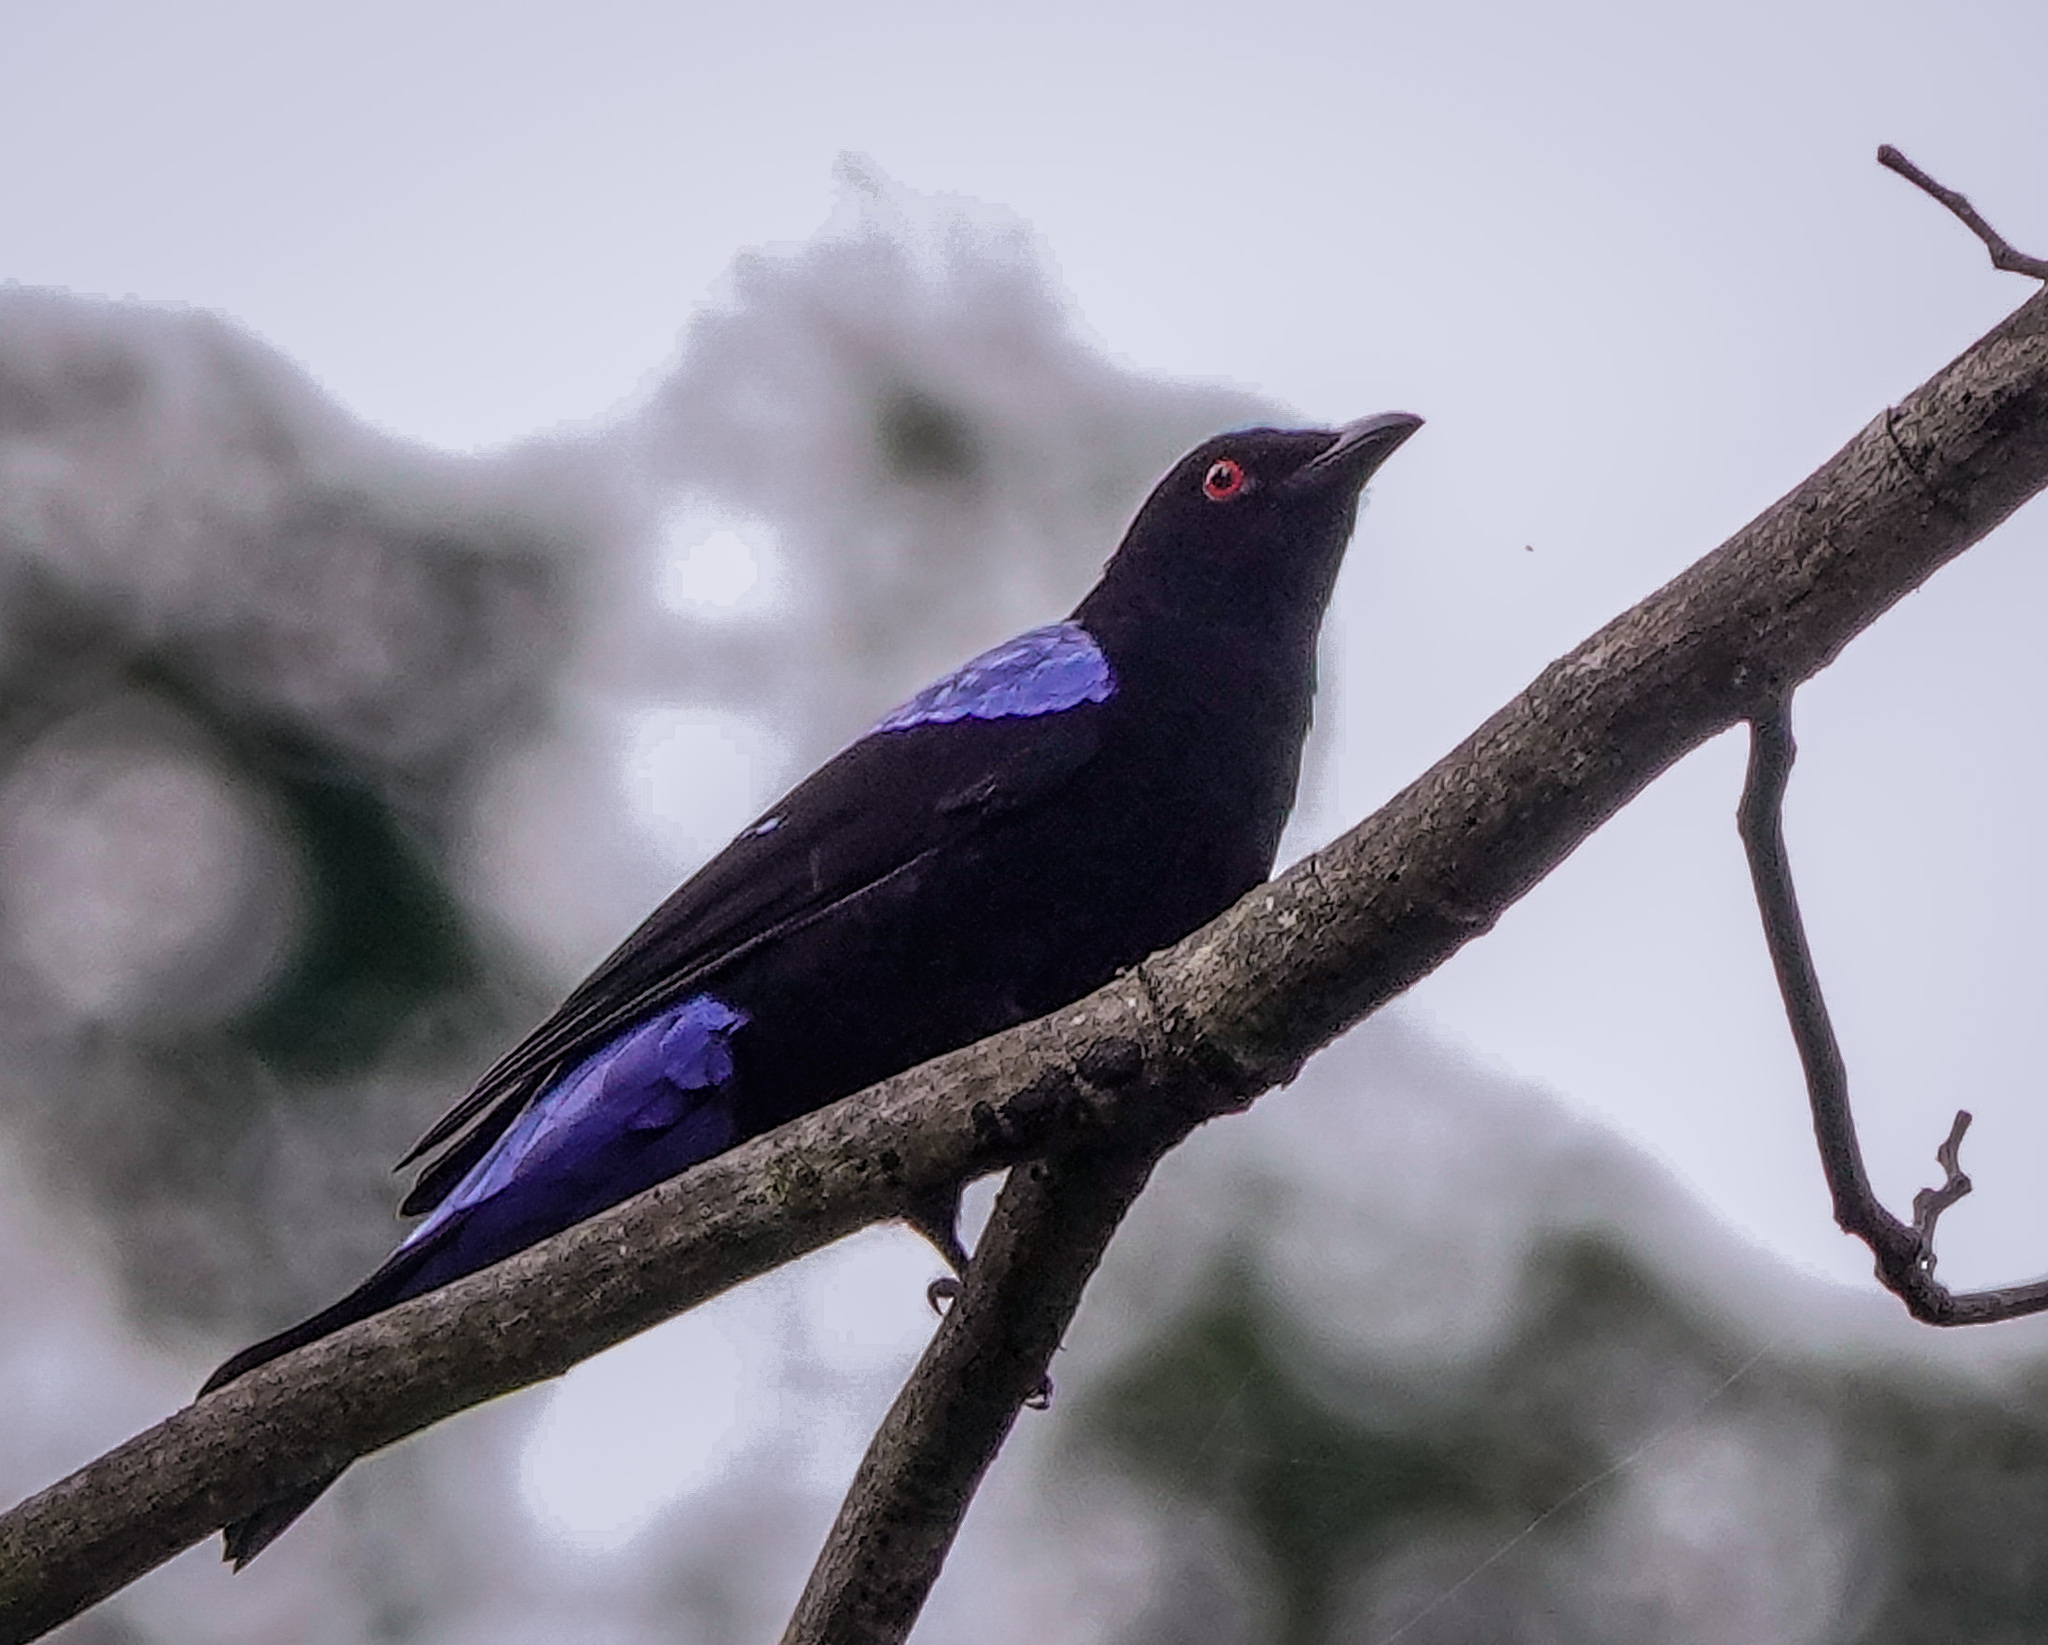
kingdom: Animalia
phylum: Chordata
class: Aves
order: Passeriformes
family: Irenidae
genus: Irena
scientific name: Irena puella
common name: Asian fairy-bluebird
